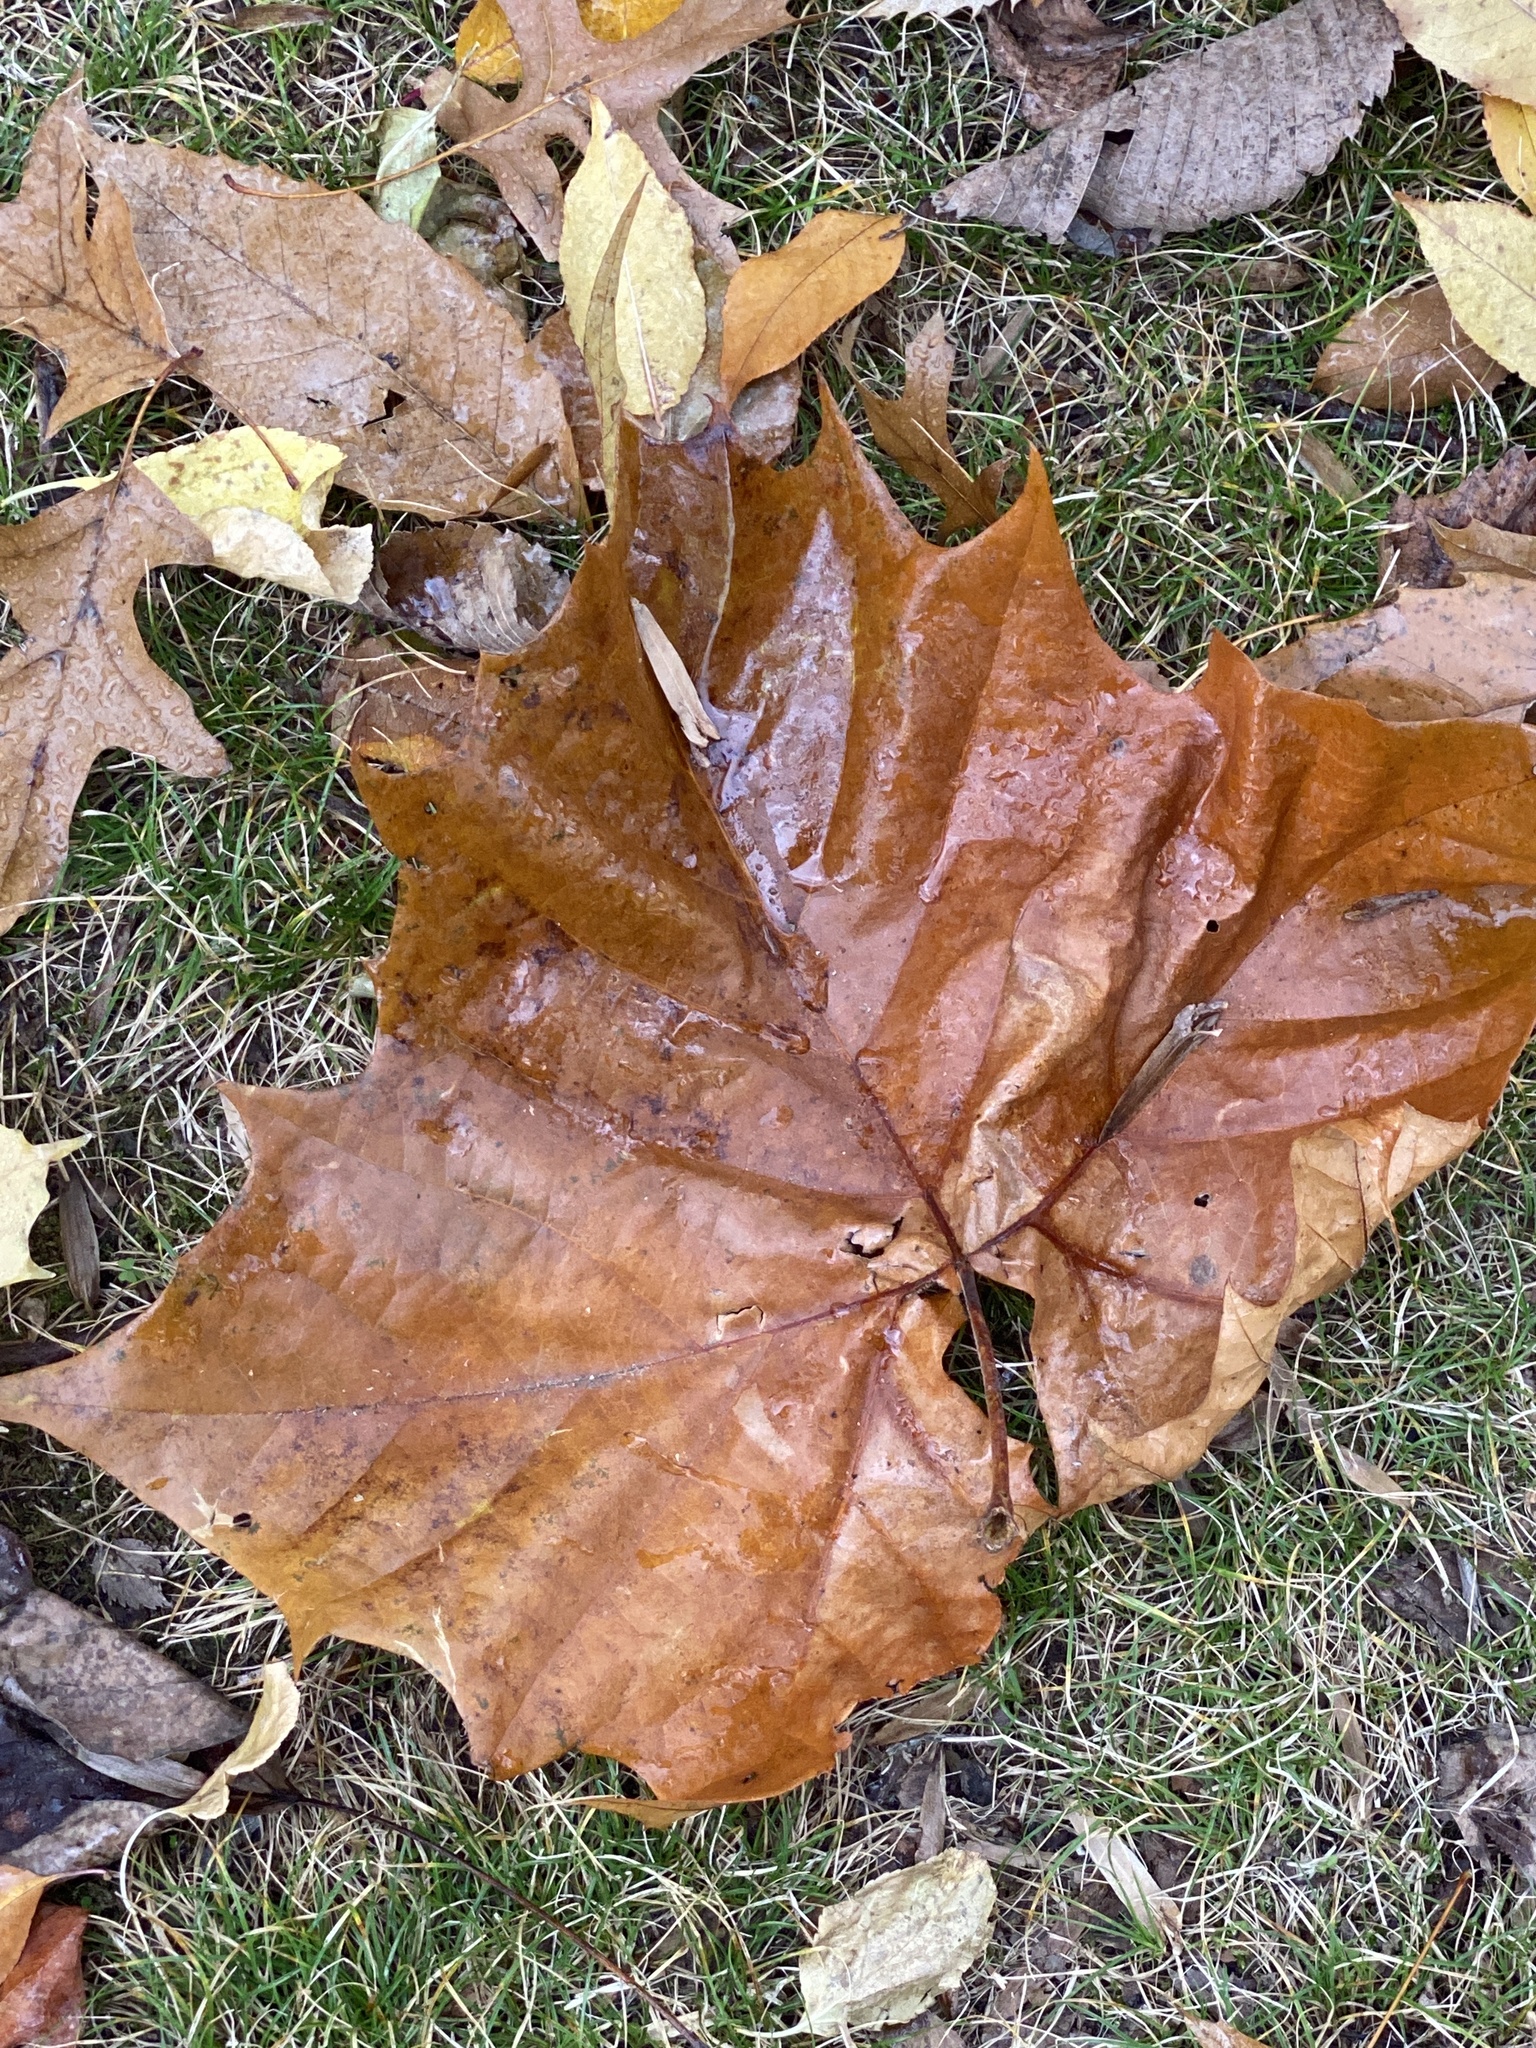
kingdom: Plantae
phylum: Tracheophyta
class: Magnoliopsida
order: Magnoliales
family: Magnoliaceae
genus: Liriodendron
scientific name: Liriodendron tulipifera
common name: Tulip tree
